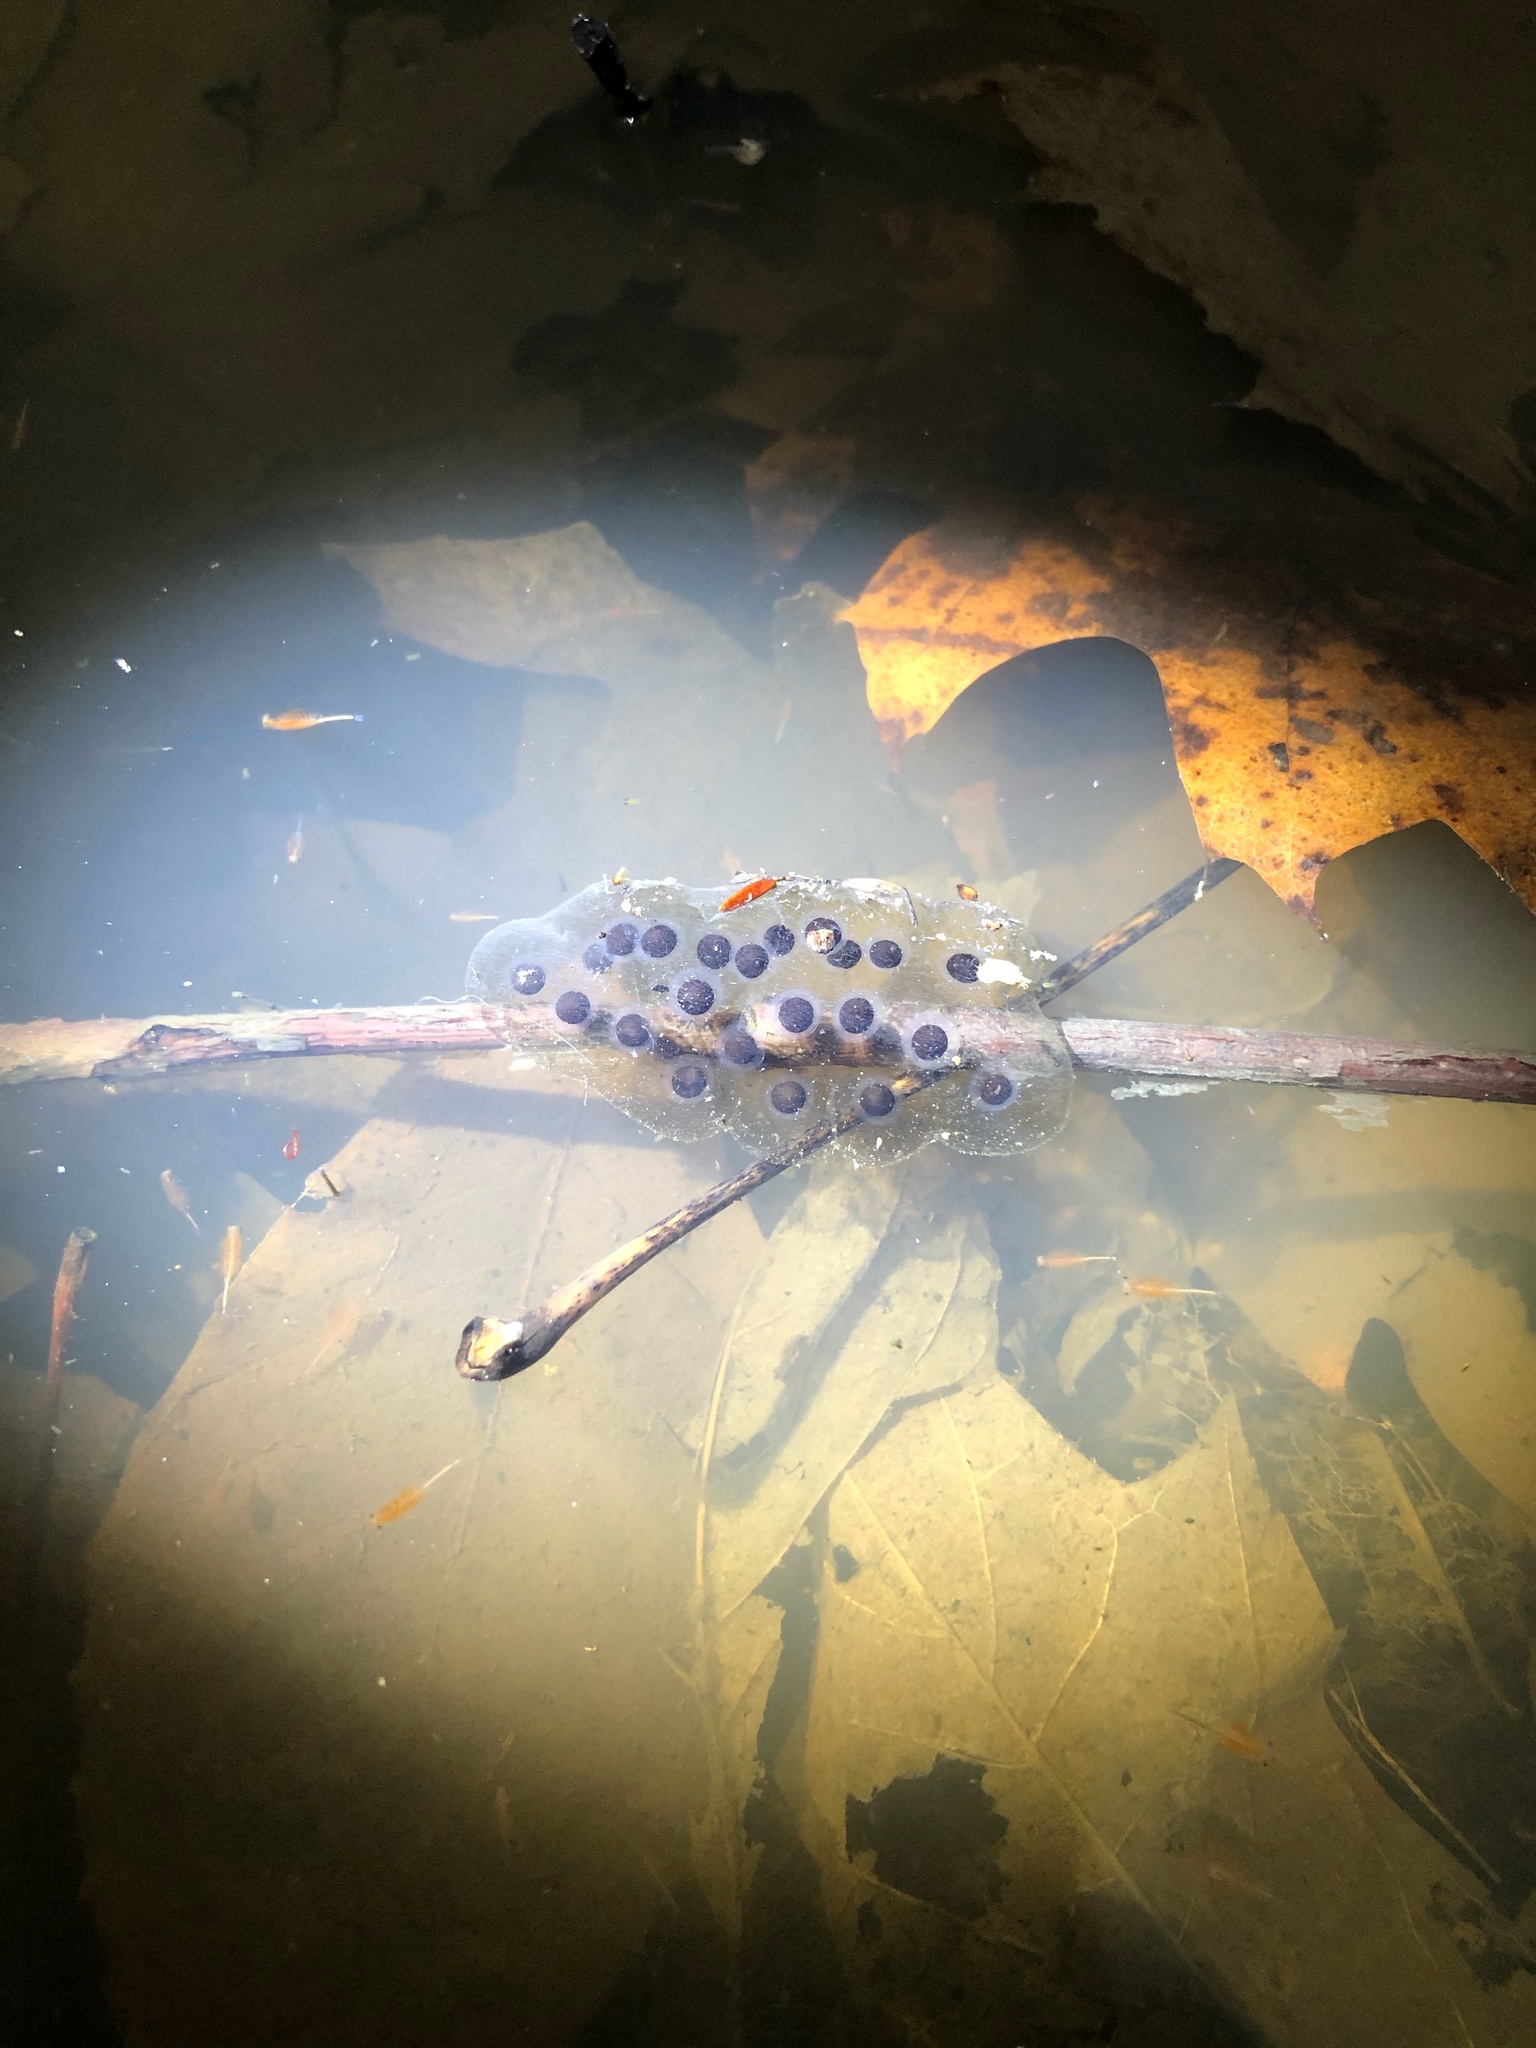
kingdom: Animalia
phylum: Chordata
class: Amphibia
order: Caudata
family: Ambystomatidae
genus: Ambystoma
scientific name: Ambystoma jeffersonianum
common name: Jefferson salamander
